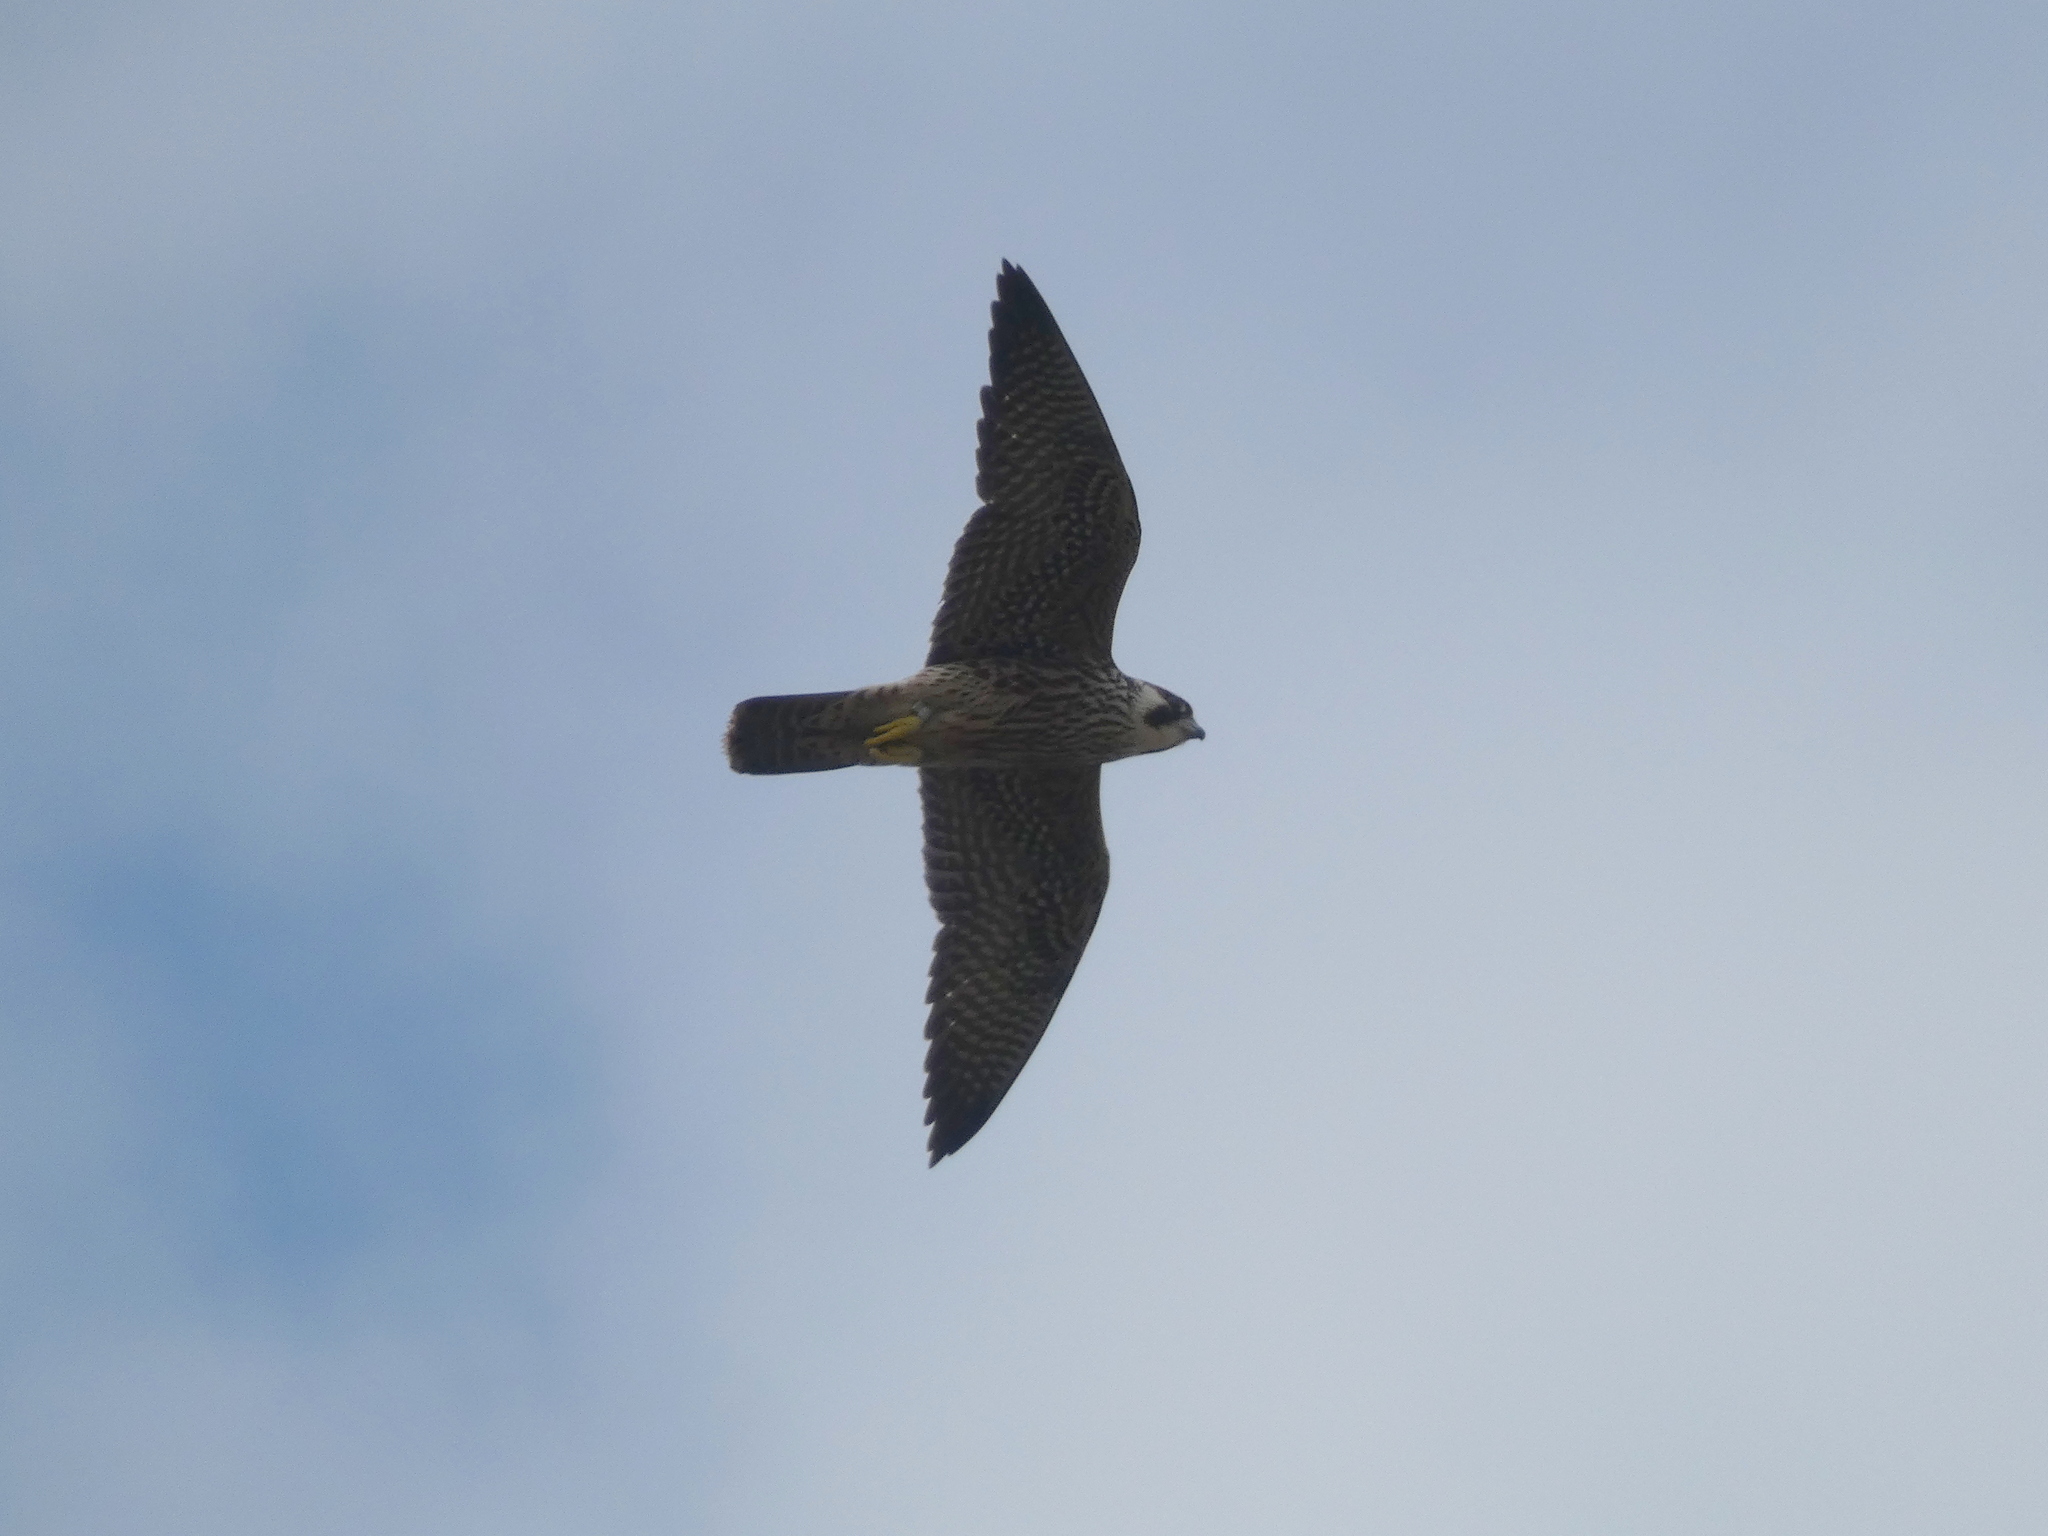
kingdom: Animalia
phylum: Chordata
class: Aves
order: Falconiformes
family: Falconidae
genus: Falco
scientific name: Falco peregrinus
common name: Peregrine falcon
